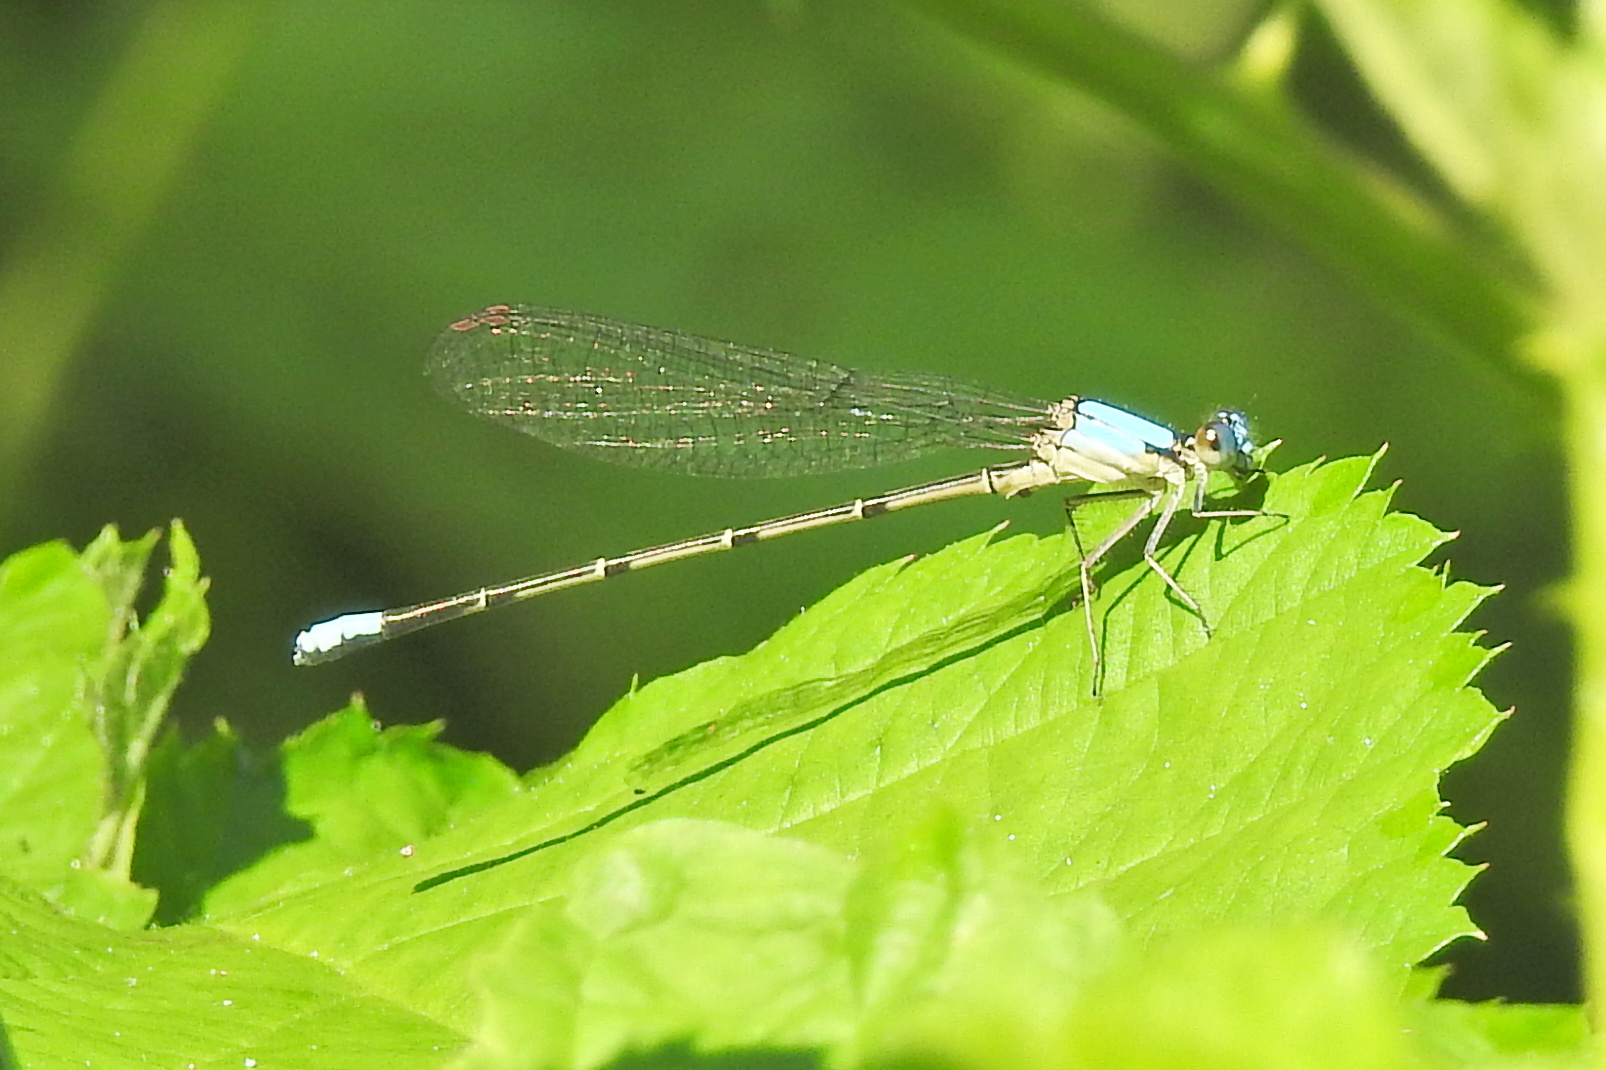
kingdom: Animalia
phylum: Arthropoda
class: Insecta
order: Odonata
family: Coenagrionidae
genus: Argia
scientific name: Argia apicalis
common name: Blue-fronted dancer
